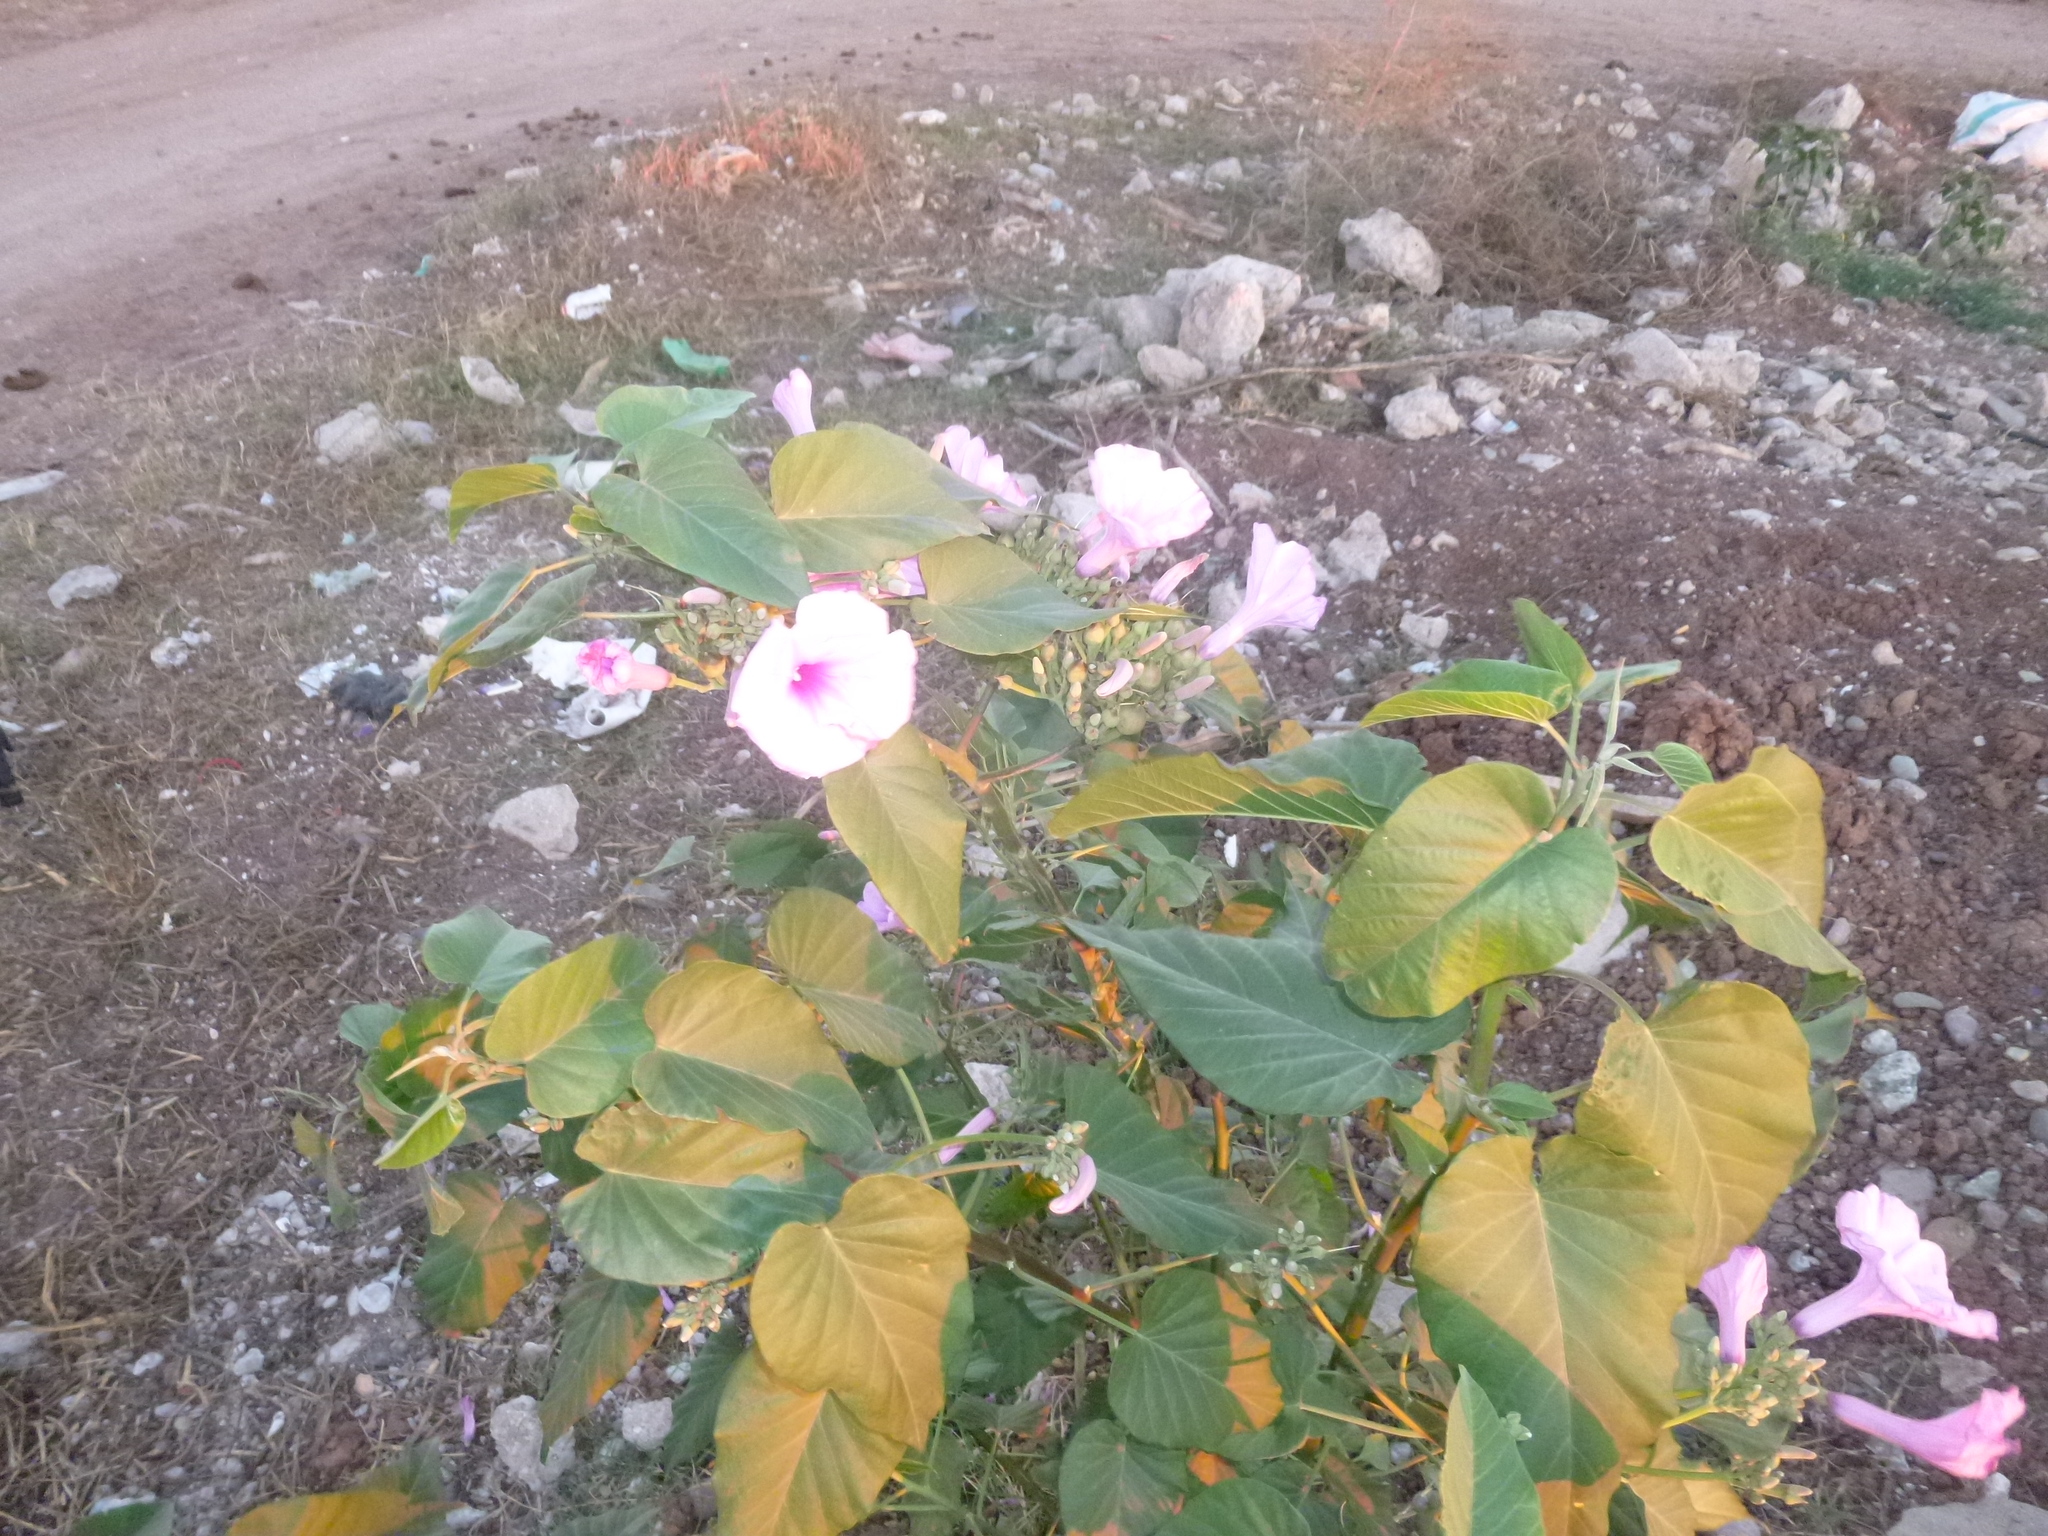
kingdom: Plantae
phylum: Tracheophyta
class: Magnoliopsida
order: Solanales
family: Convolvulaceae
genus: Ipomoea
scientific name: Ipomoea carnea
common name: Morning-glory
